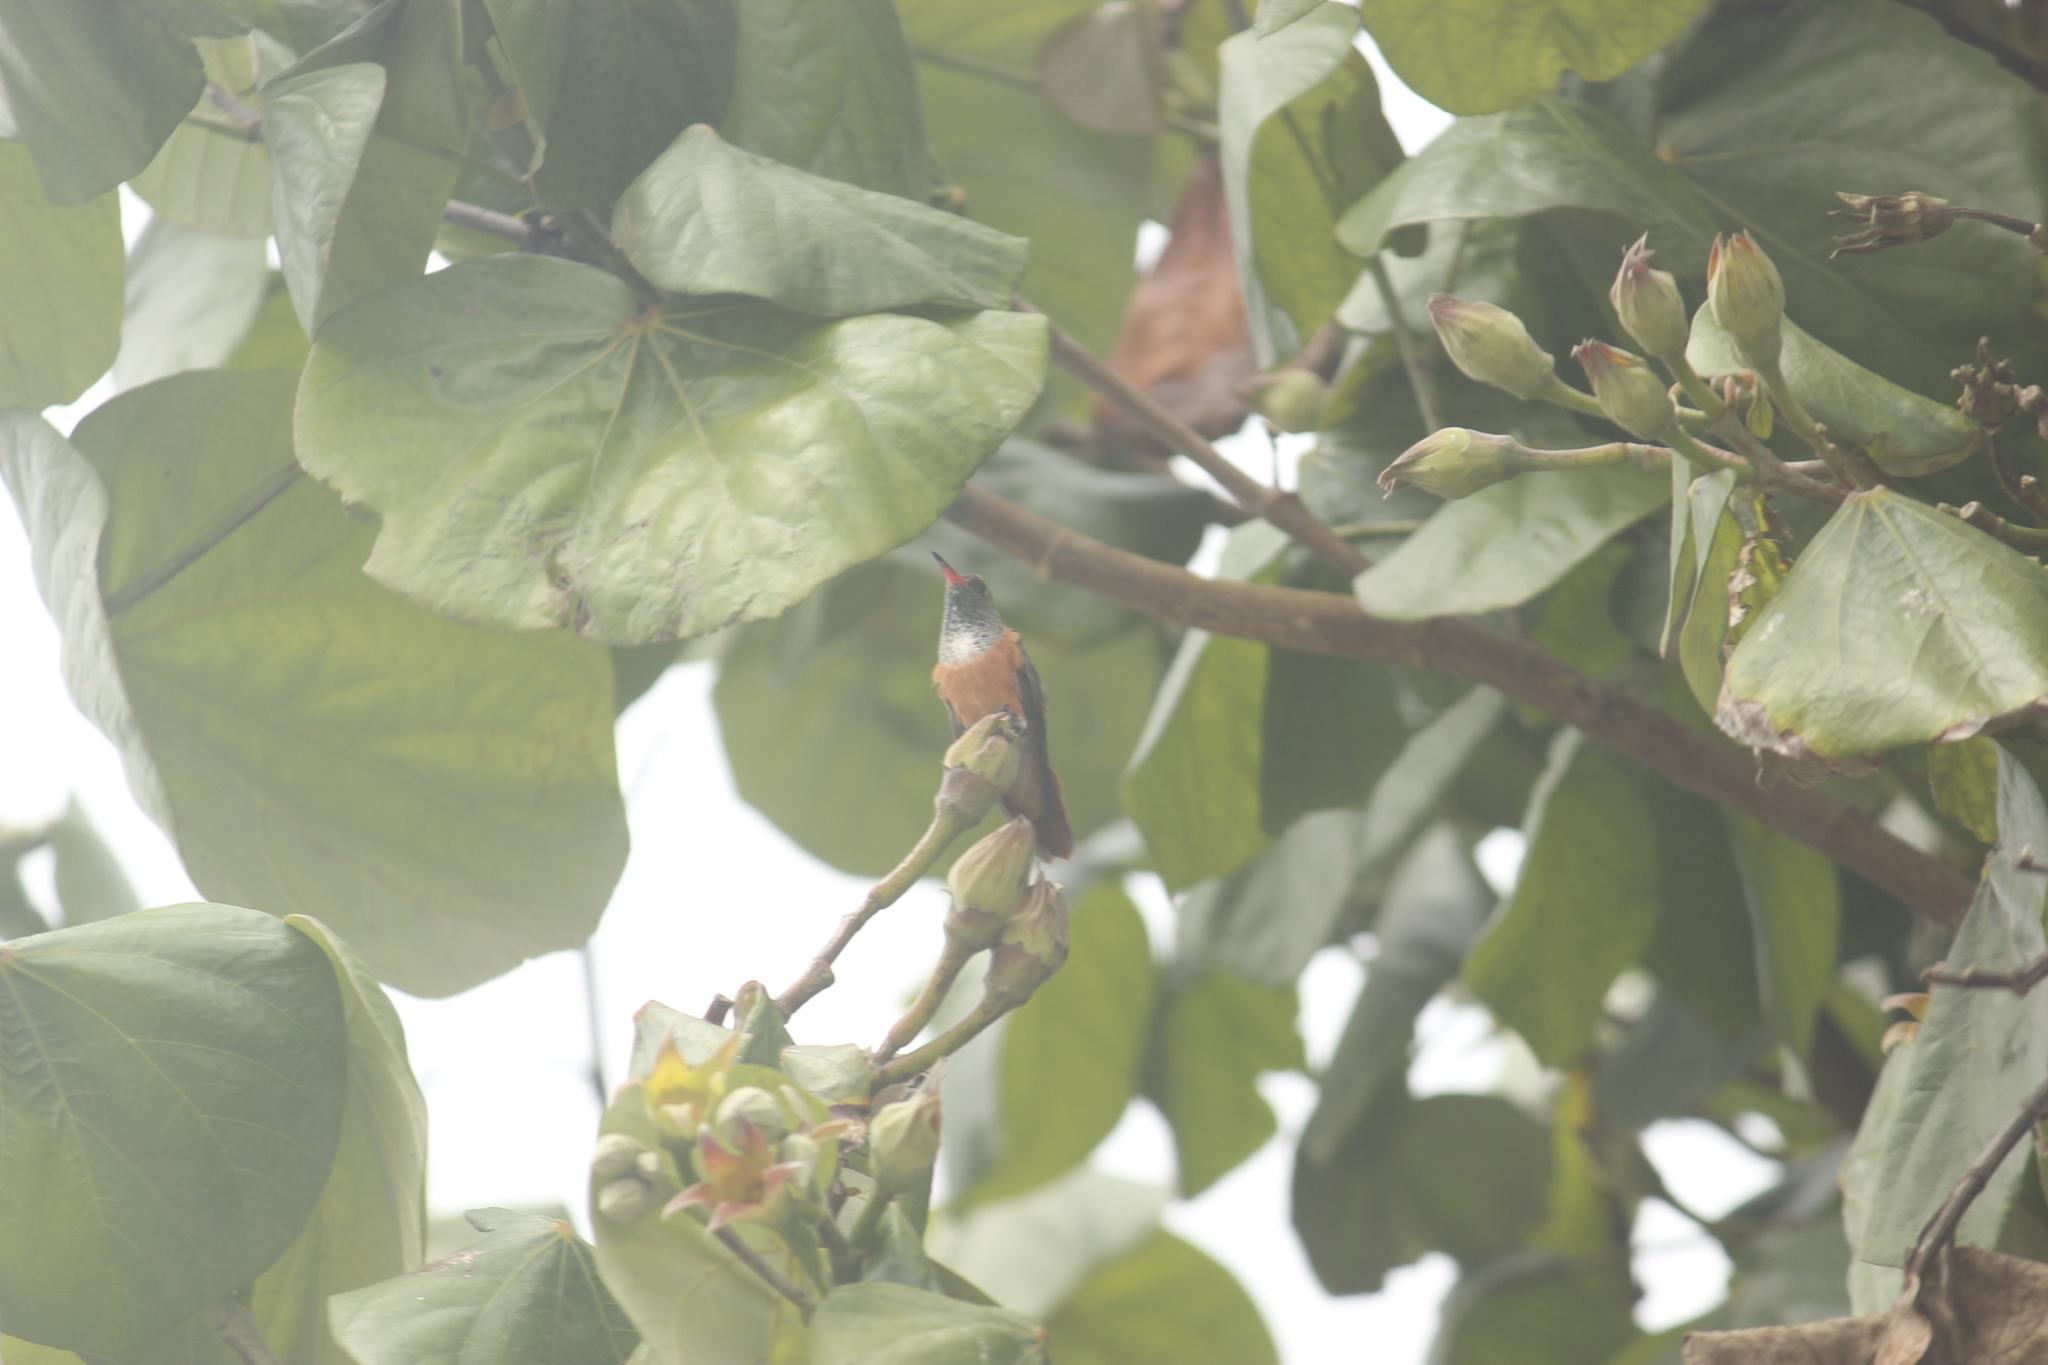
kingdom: Animalia
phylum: Chordata
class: Aves
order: Apodiformes
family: Trochilidae
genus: Amazilis
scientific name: Amazilis amazilia
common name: Amazilia hummingbird
